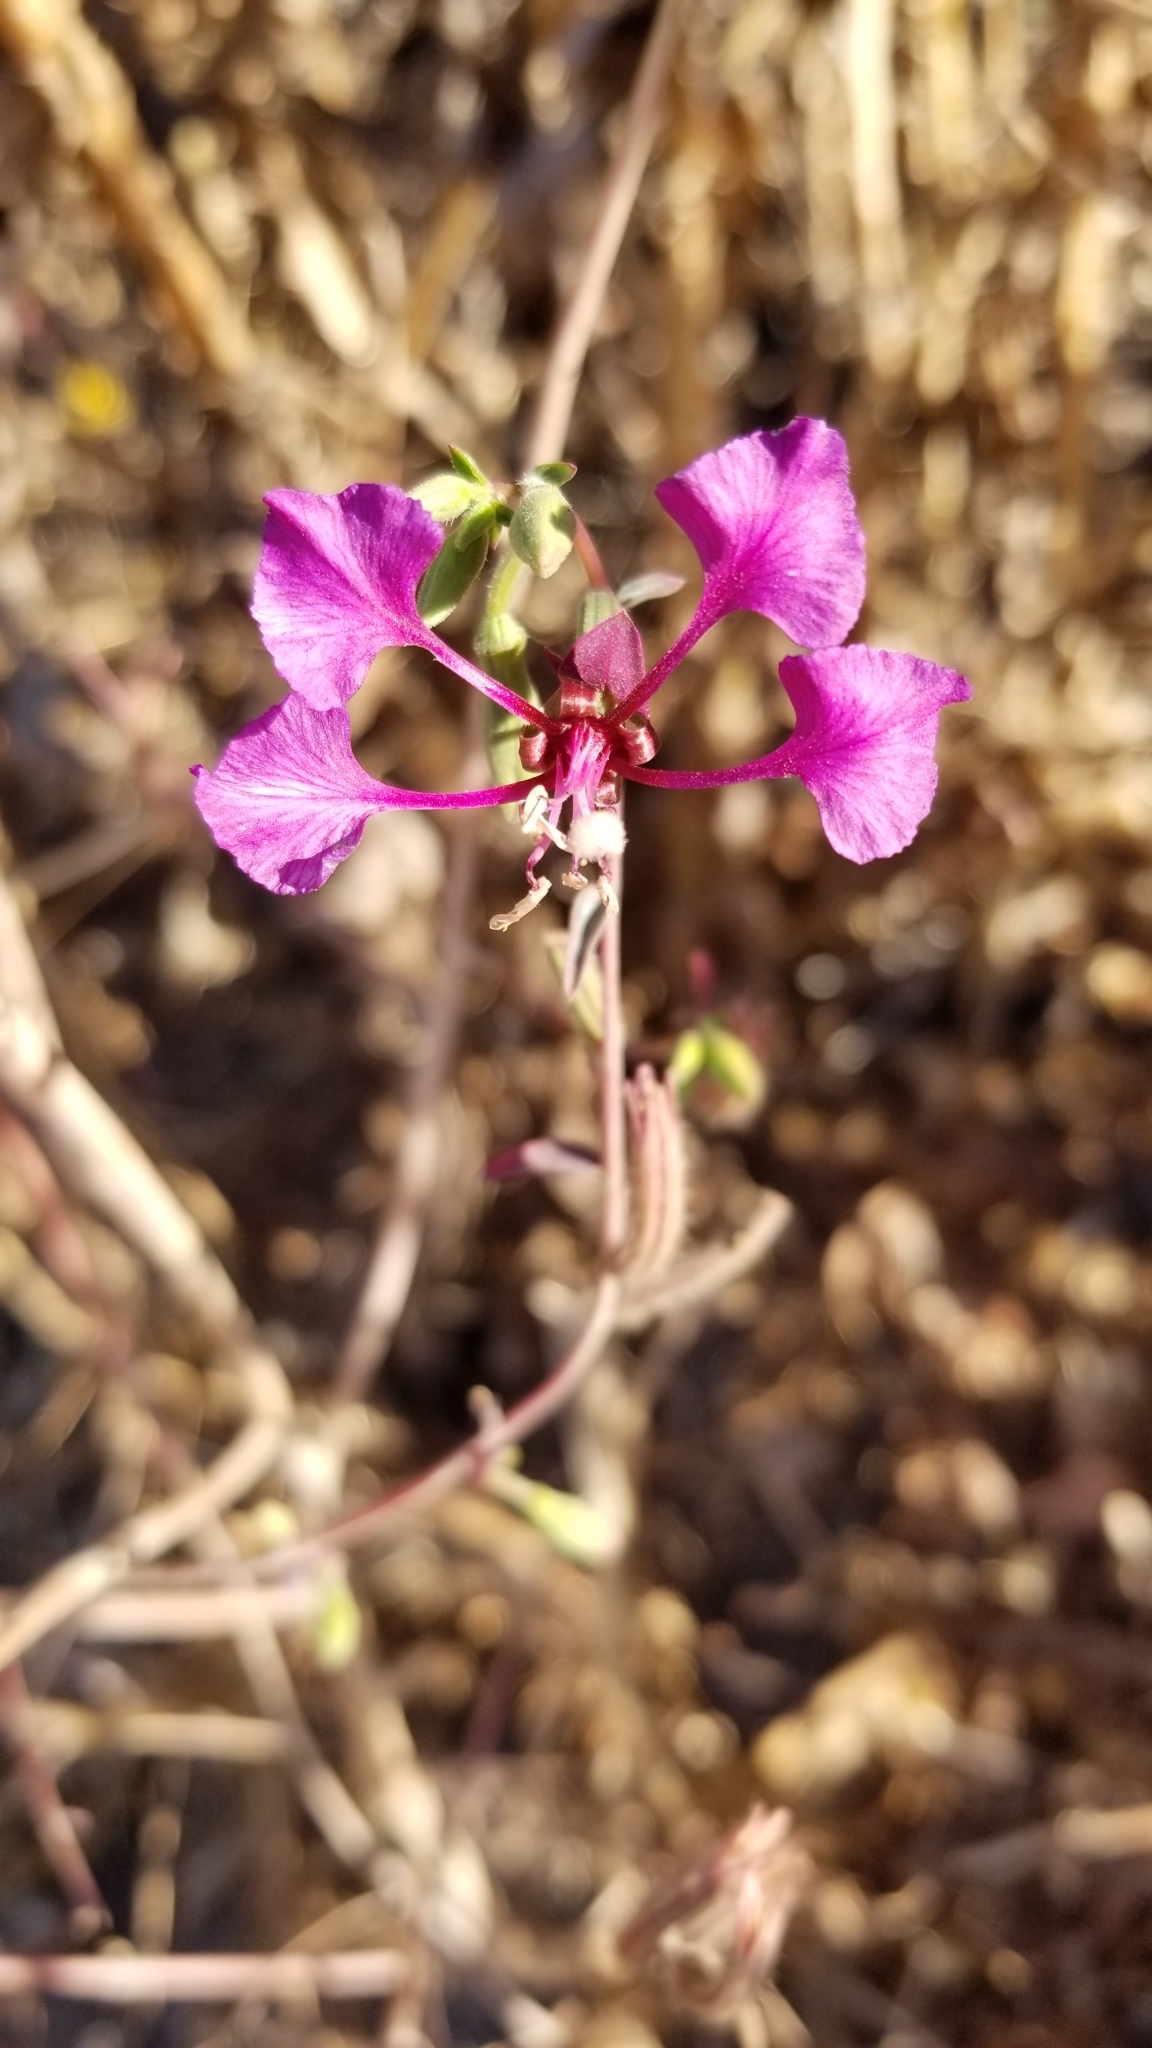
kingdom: Plantae
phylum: Tracheophyta
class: Magnoliopsida
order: Myrtales
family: Onagraceae
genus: Clarkia
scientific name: Clarkia unguiculata
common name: Clarkia
